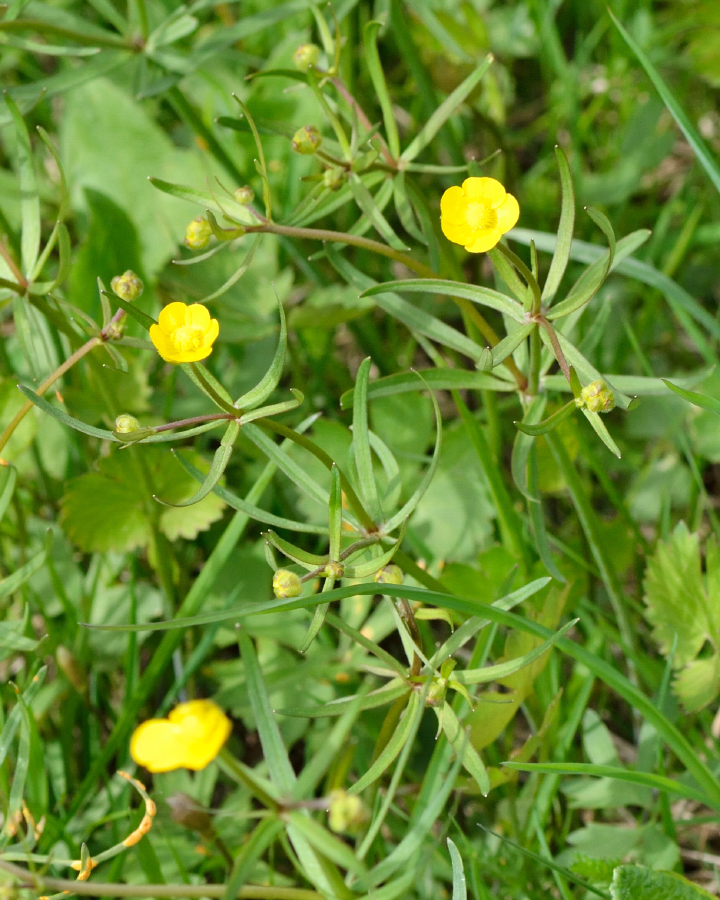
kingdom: Plantae
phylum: Tracheophyta
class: Magnoliopsida
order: Ranunculales
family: Ranunculaceae
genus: Ranunculus
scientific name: Ranunculus auricomus
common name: Goldilocks buttercup
